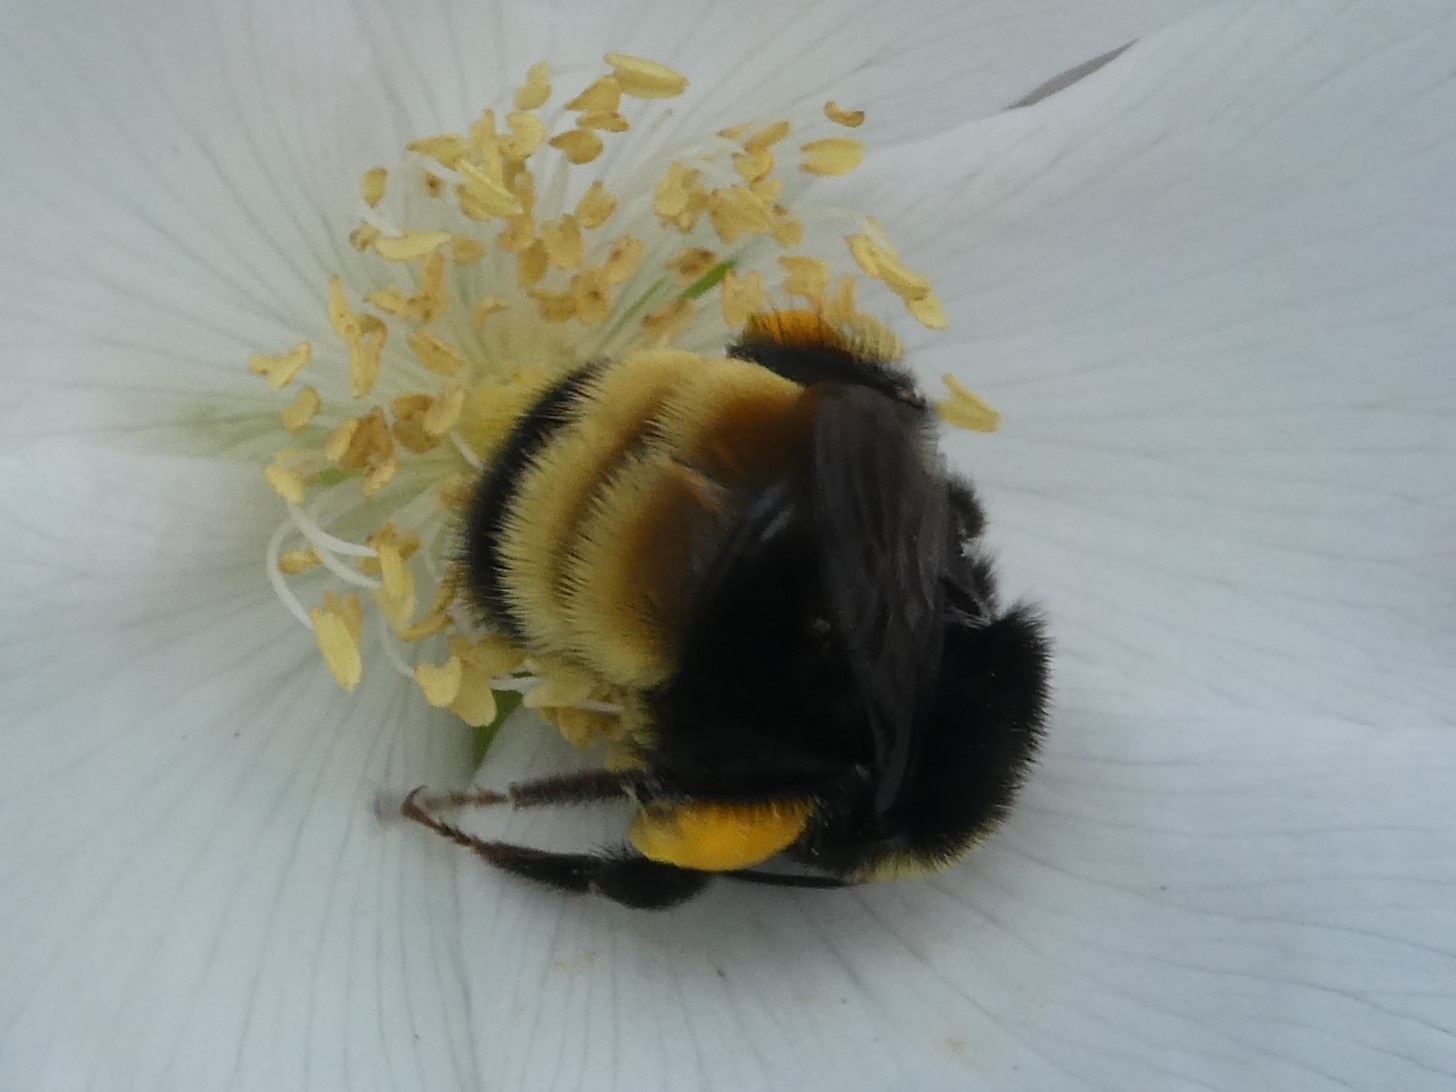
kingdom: Animalia
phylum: Arthropoda
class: Insecta
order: Hymenoptera
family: Apidae
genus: Bombus
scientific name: Bombus terricola
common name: Yellow-banded bumble bee
